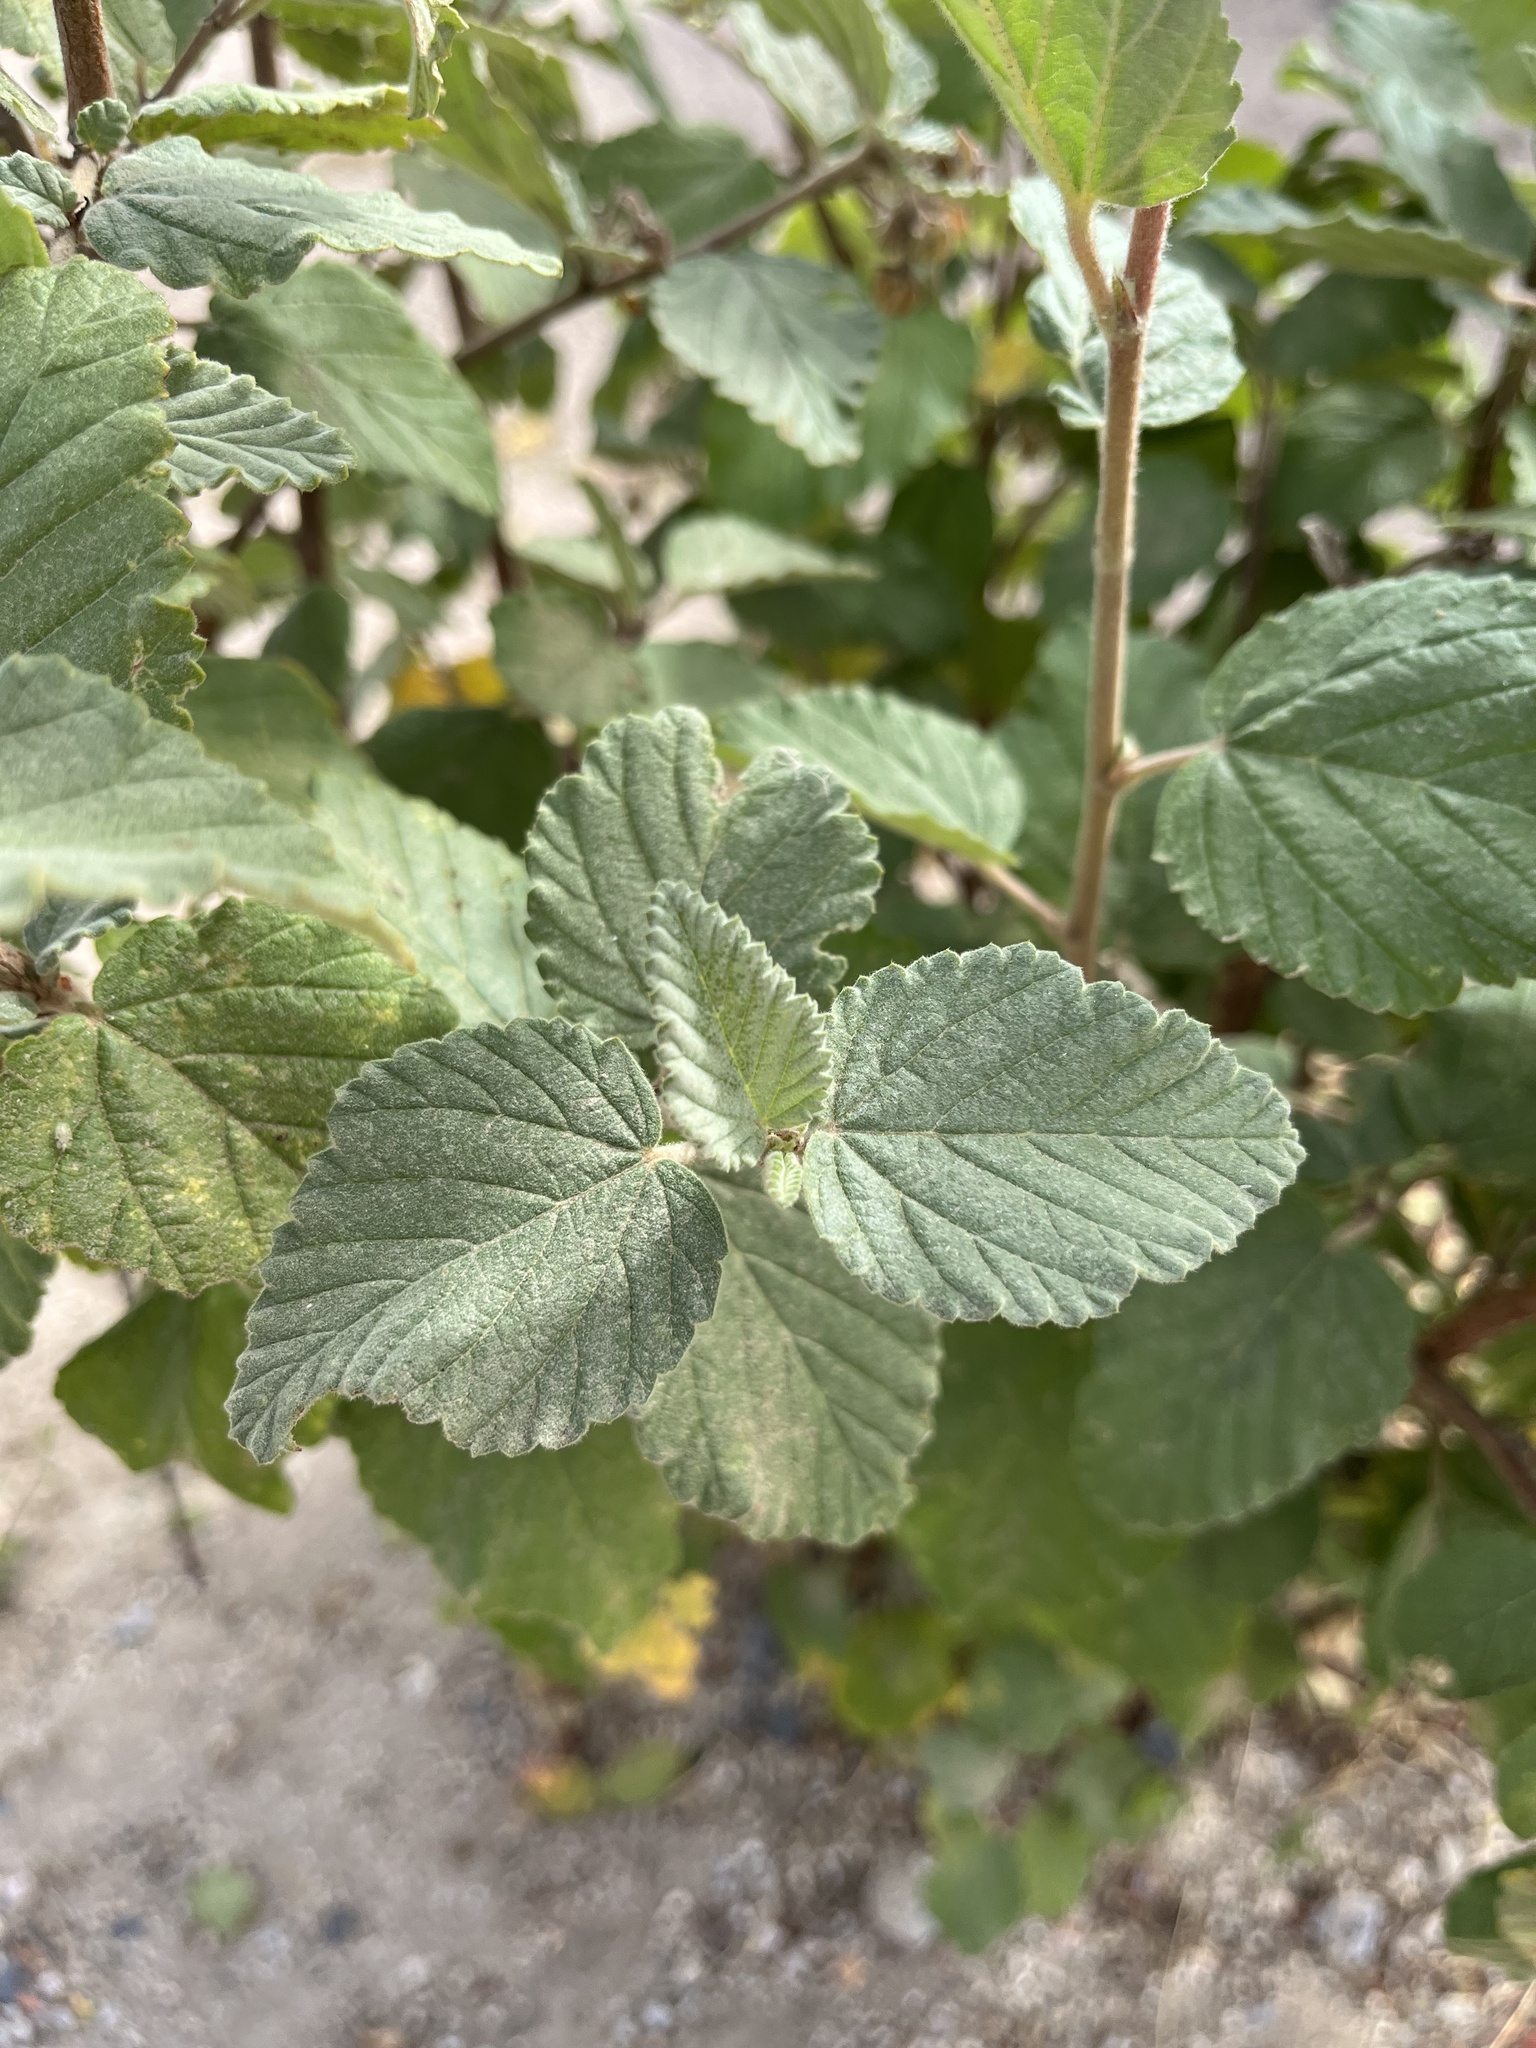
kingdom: Plantae
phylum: Tracheophyta
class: Magnoliopsida
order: Malvales
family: Malvaceae
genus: Melochia
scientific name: Melochia tomentosa
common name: Black torch
